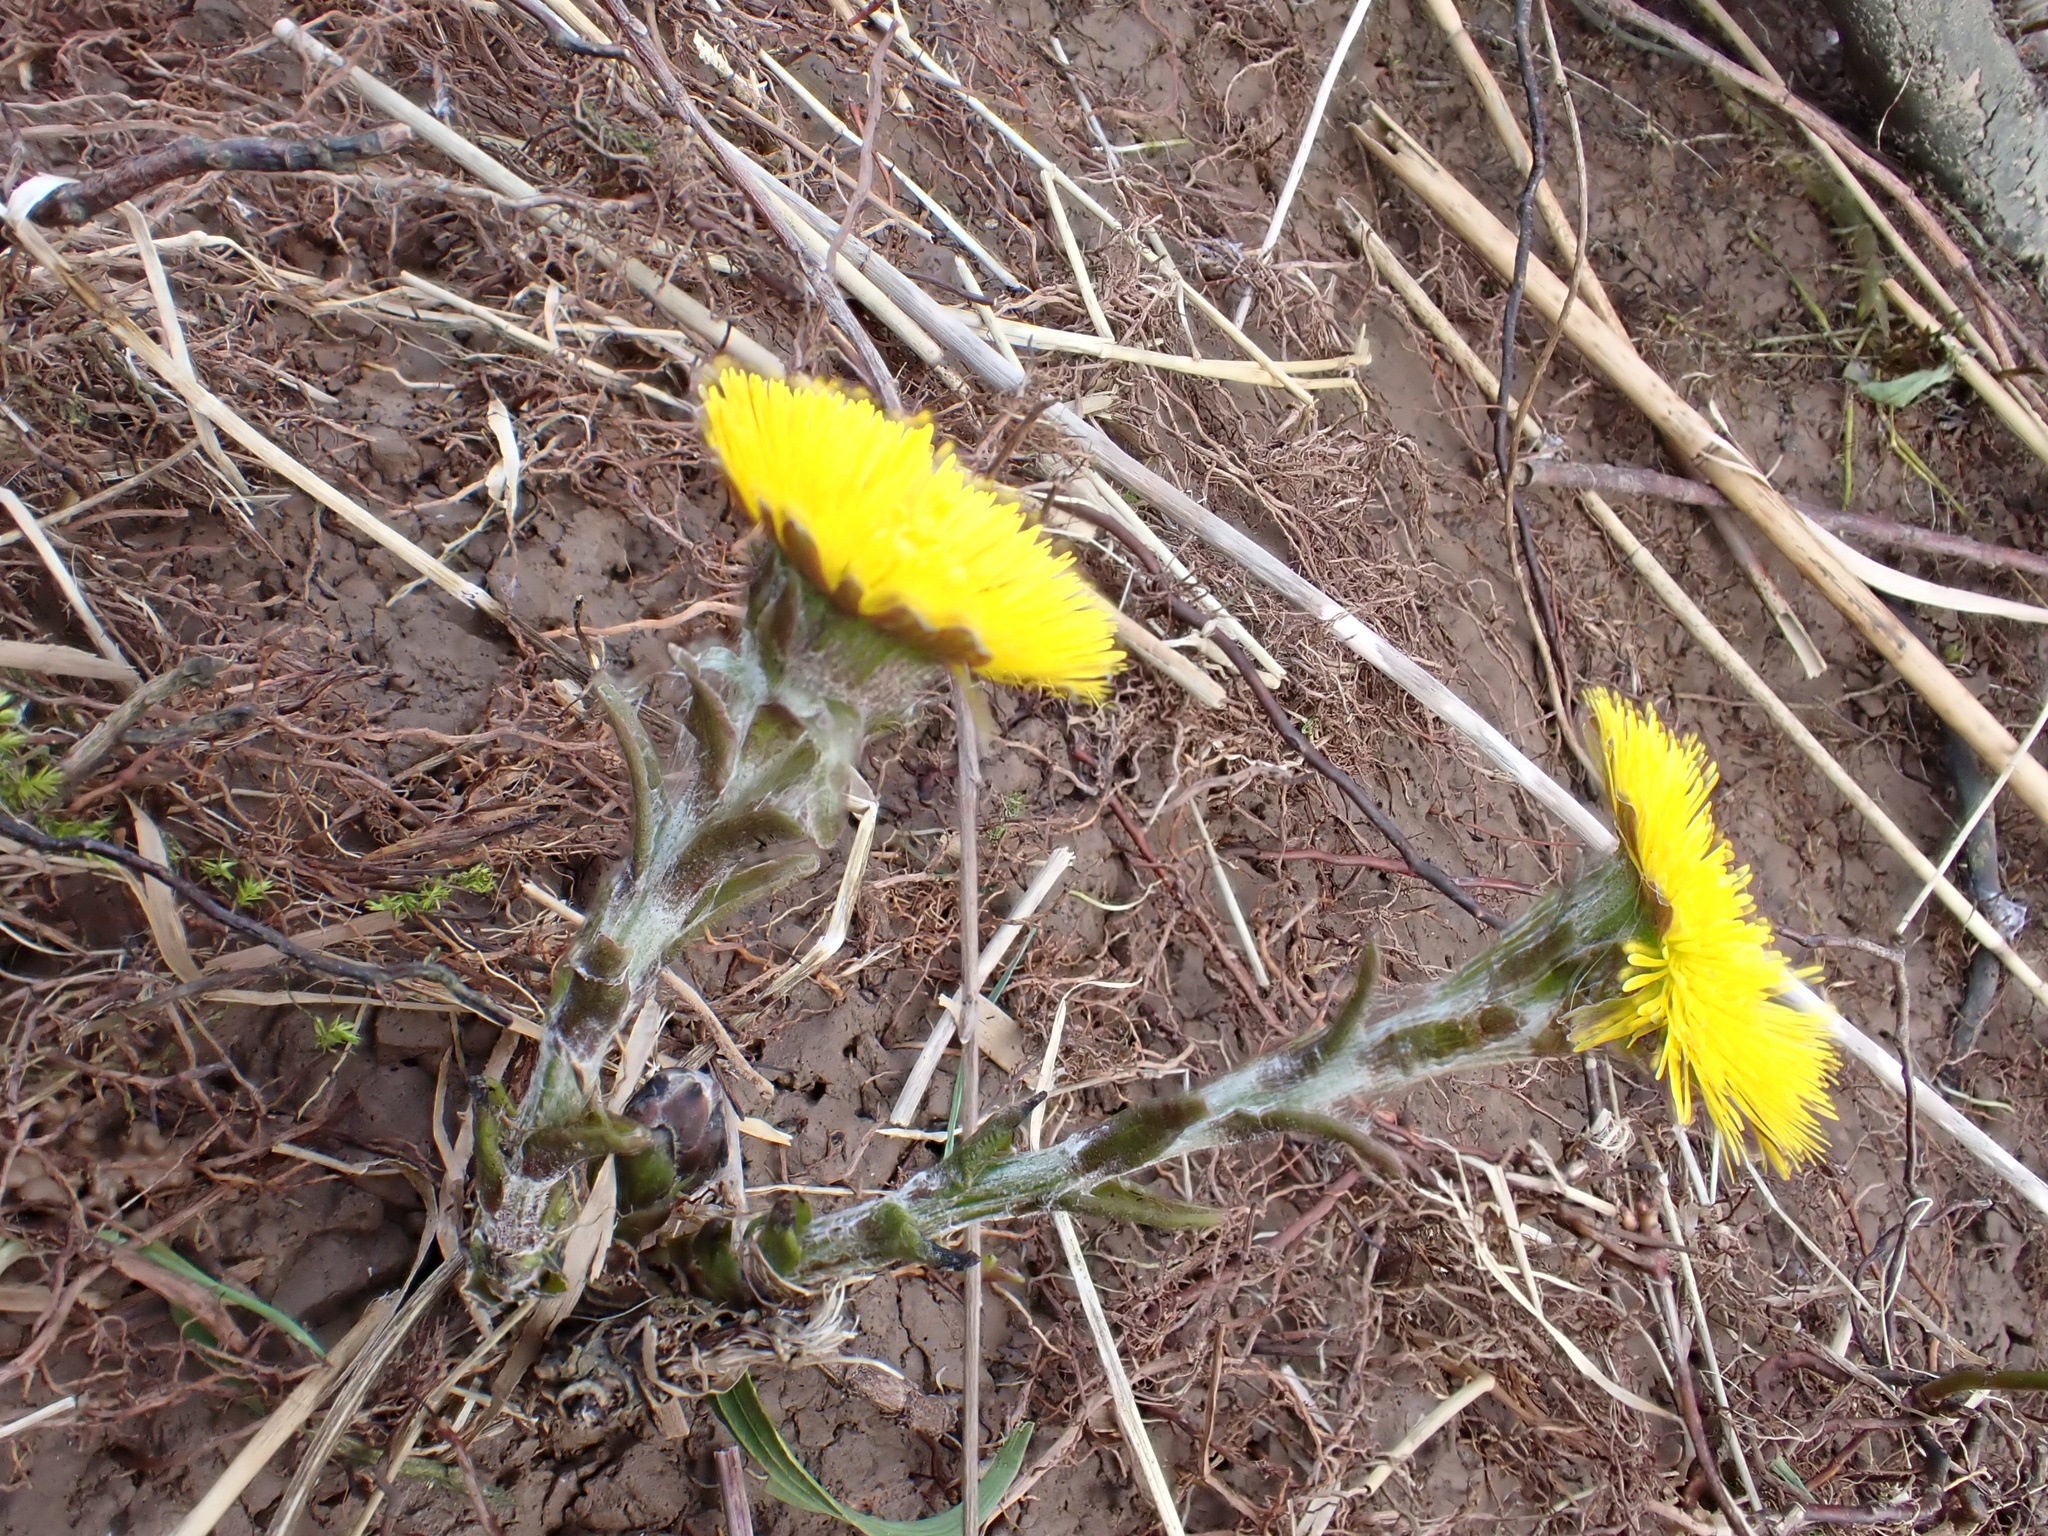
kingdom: Plantae
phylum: Tracheophyta
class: Magnoliopsida
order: Asterales
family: Asteraceae
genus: Tussilago
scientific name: Tussilago farfara
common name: Coltsfoot
